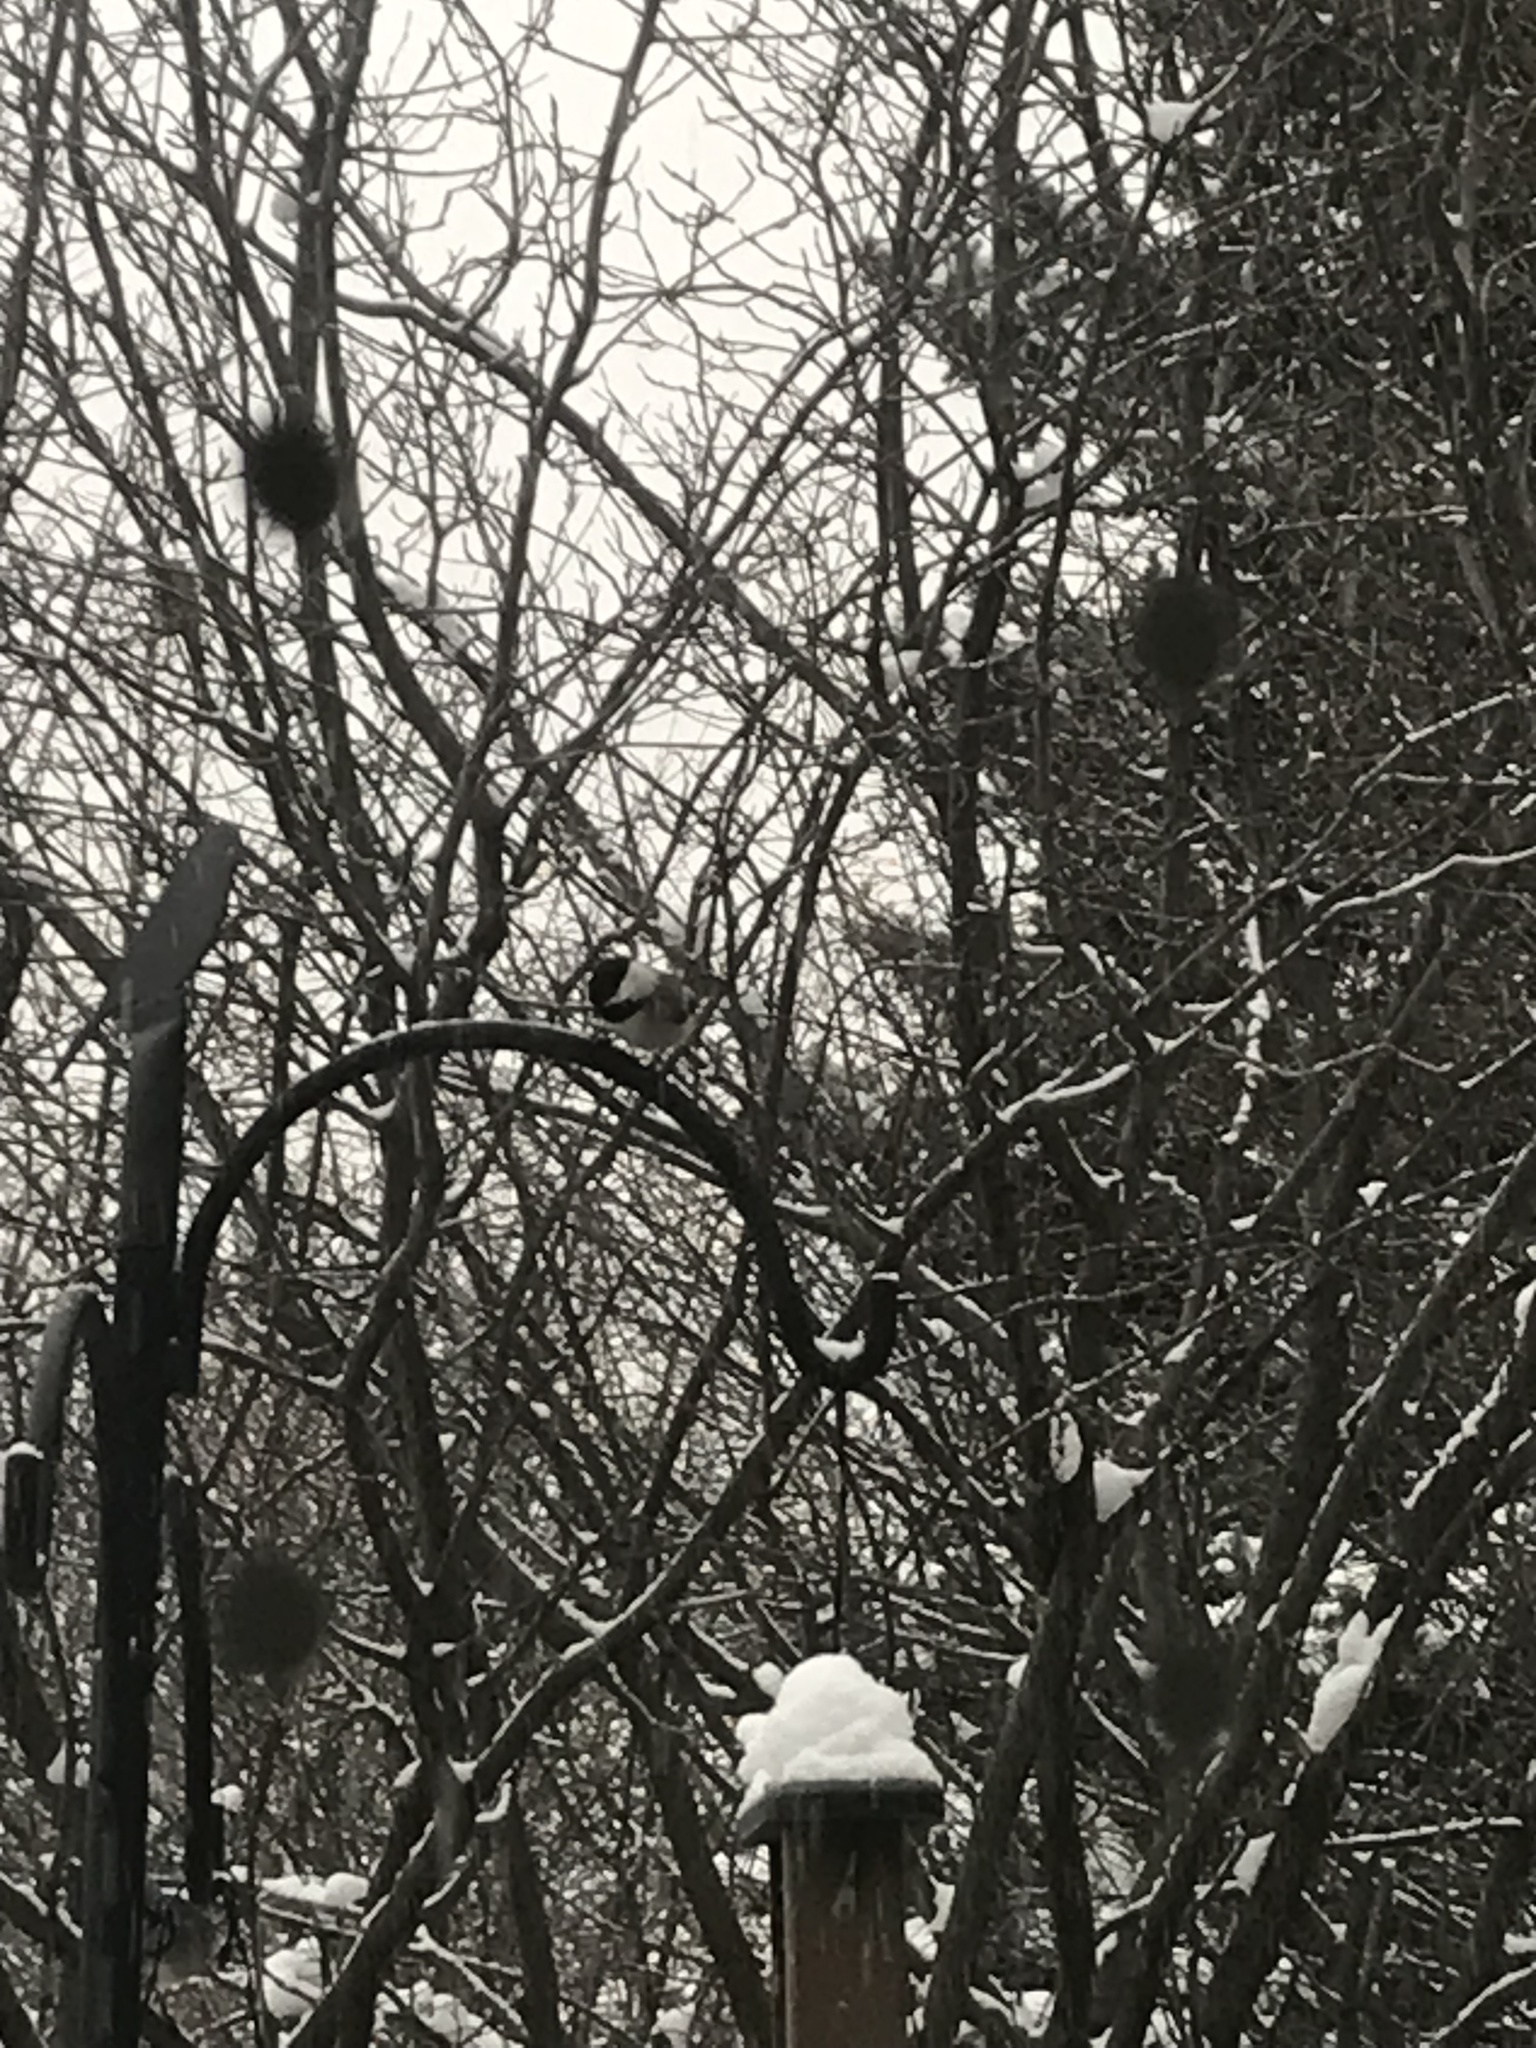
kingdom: Animalia
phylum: Chordata
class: Aves
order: Passeriformes
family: Paridae
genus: Poecile
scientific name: Poecile atricapillus
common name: Black-capped chickadee
